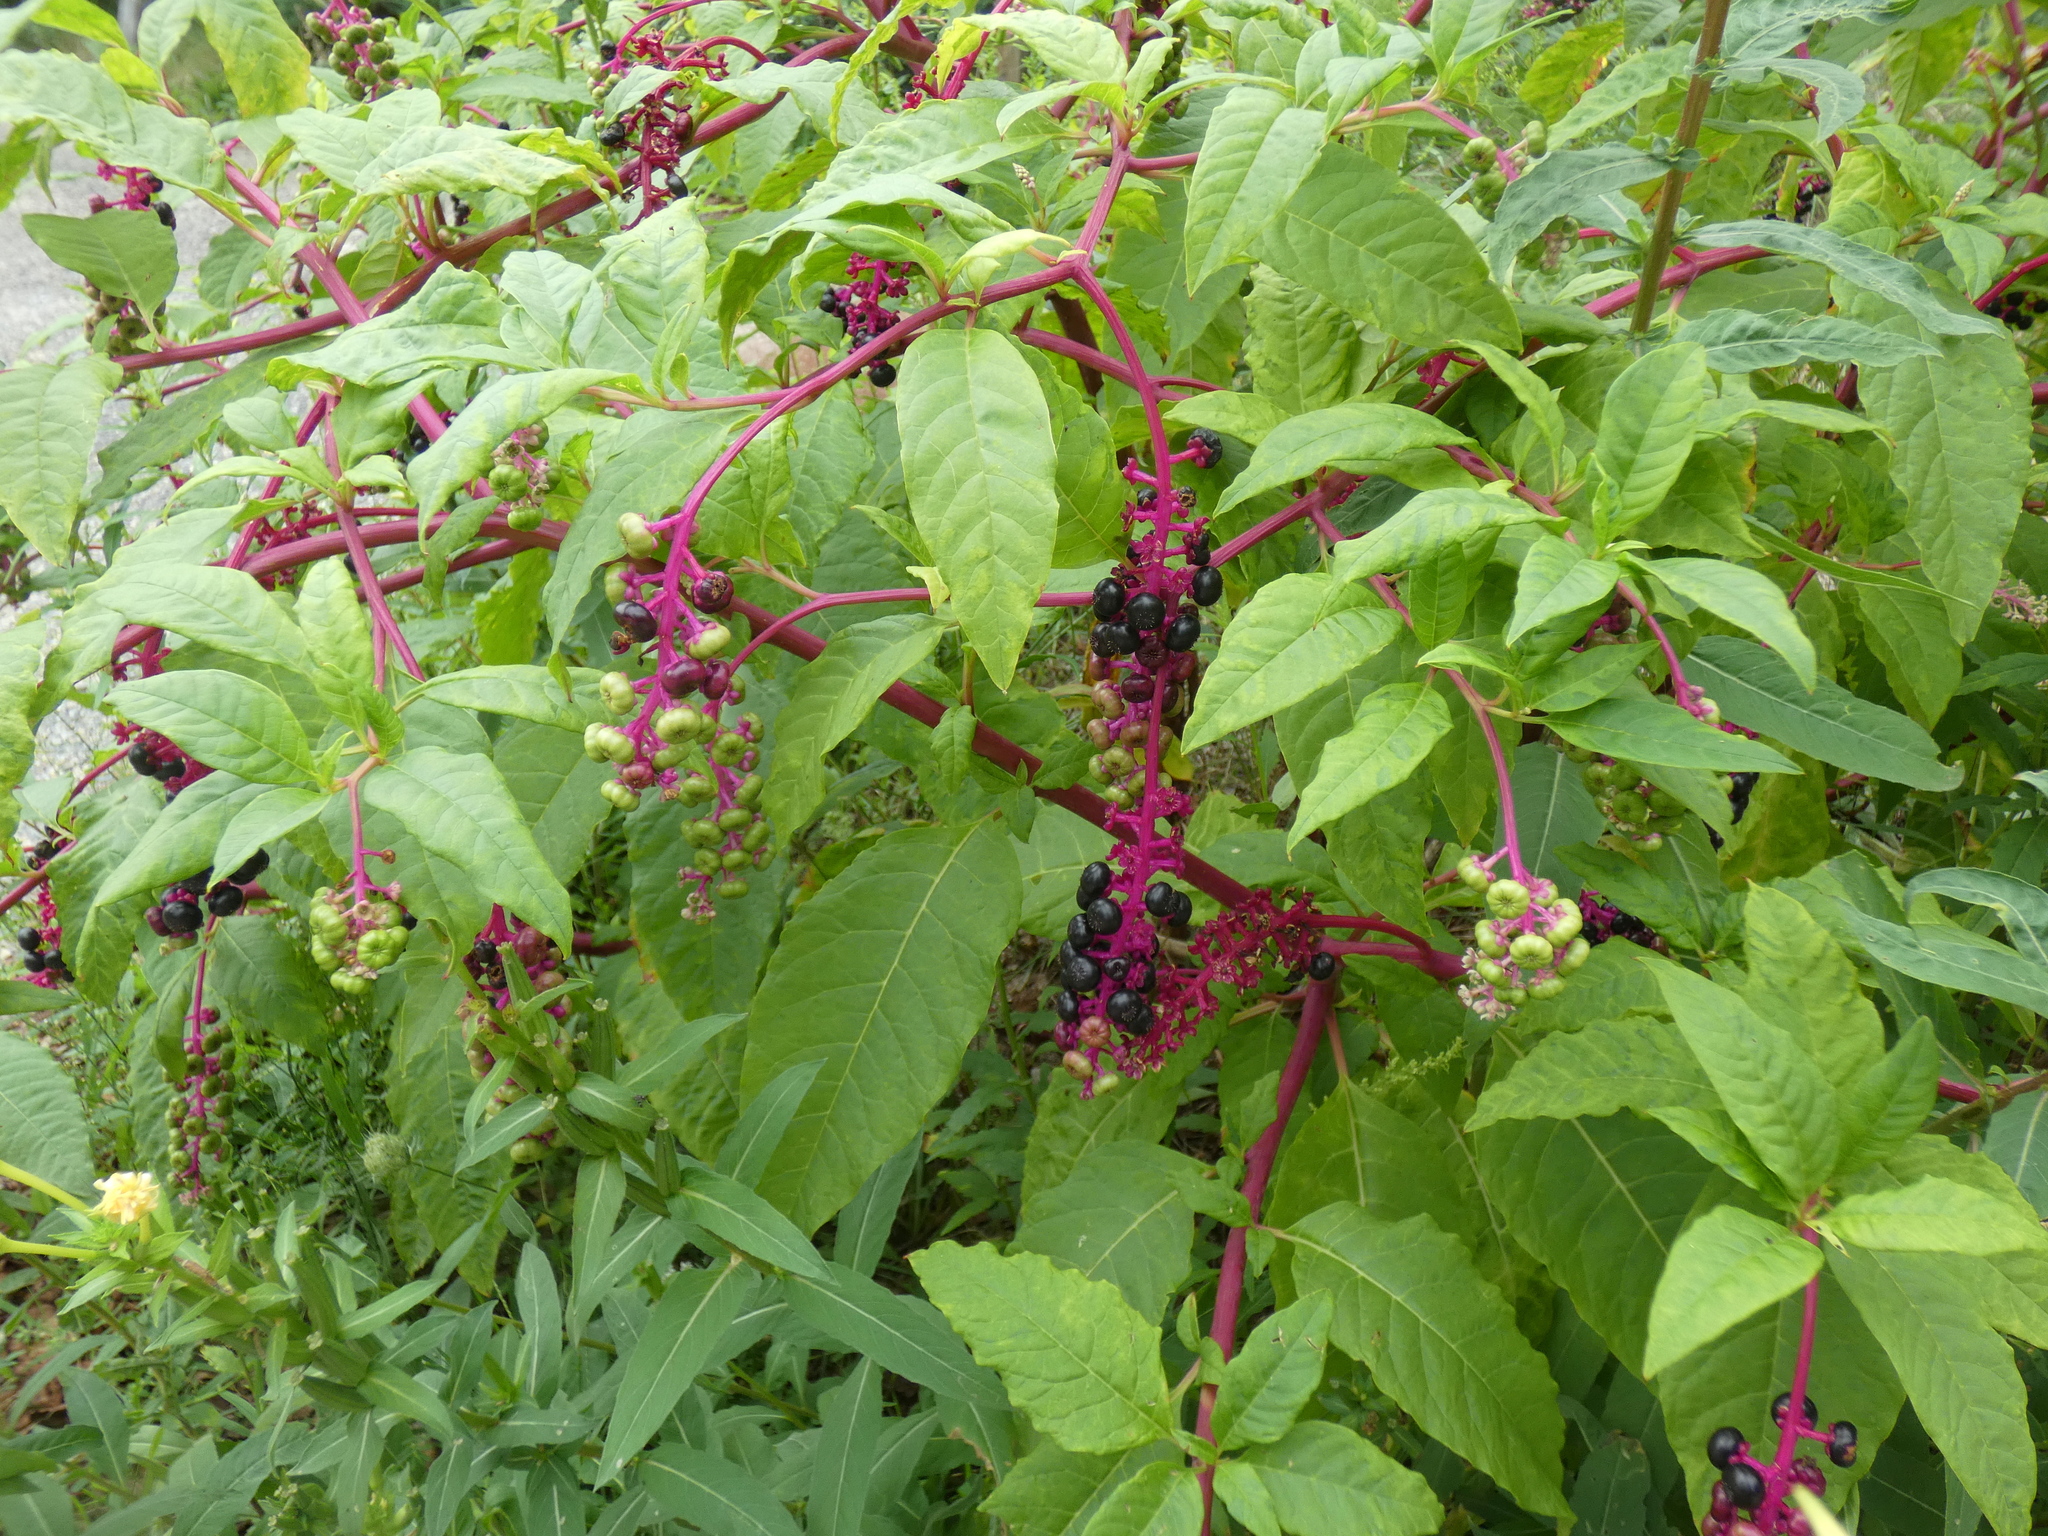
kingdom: Plantae
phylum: Tracheophyta
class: Magnoliopsida
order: Caryophyllales
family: Phytolaccaceae
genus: Phytolacca
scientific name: Phytolacca americana
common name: American pokeweed
